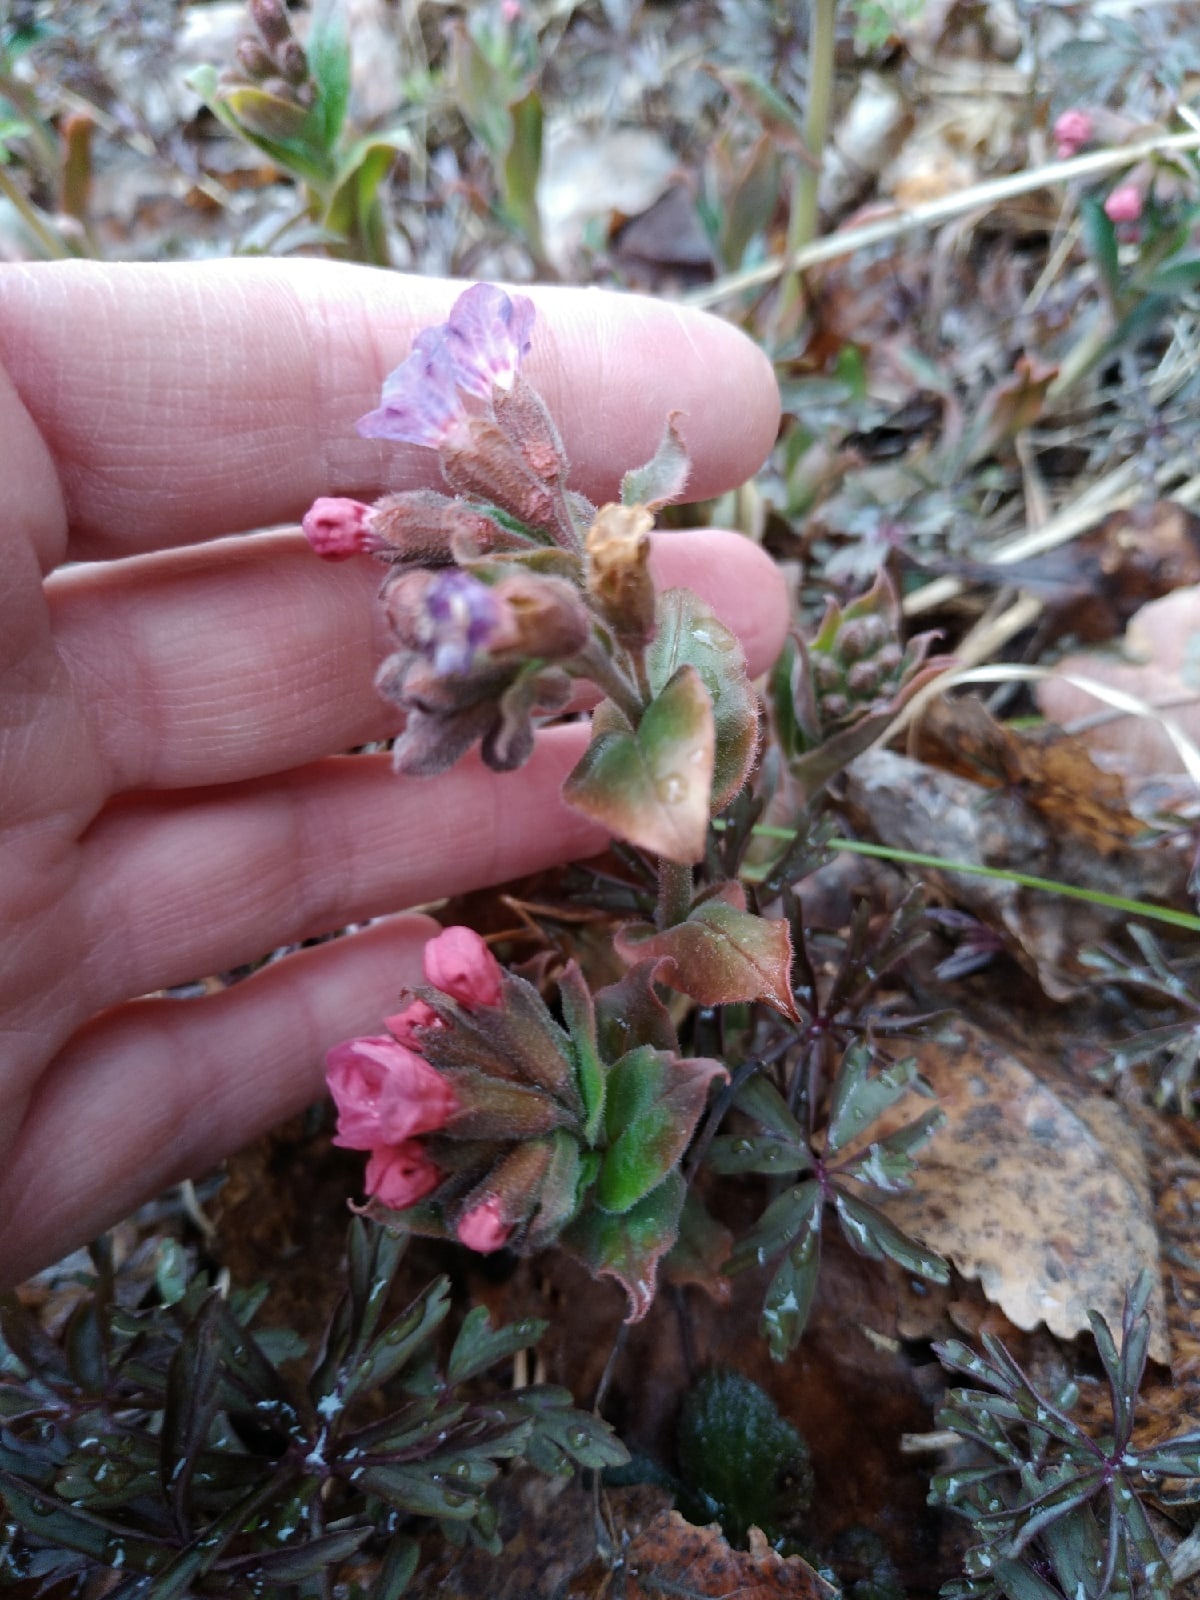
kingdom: Plantae
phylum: Tracheophyta
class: Magnoliopsida
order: Boraginales
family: Boraginaceae
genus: Pulmonaria
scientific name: Pulmonaria obscura
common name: Suffolk lungwort
